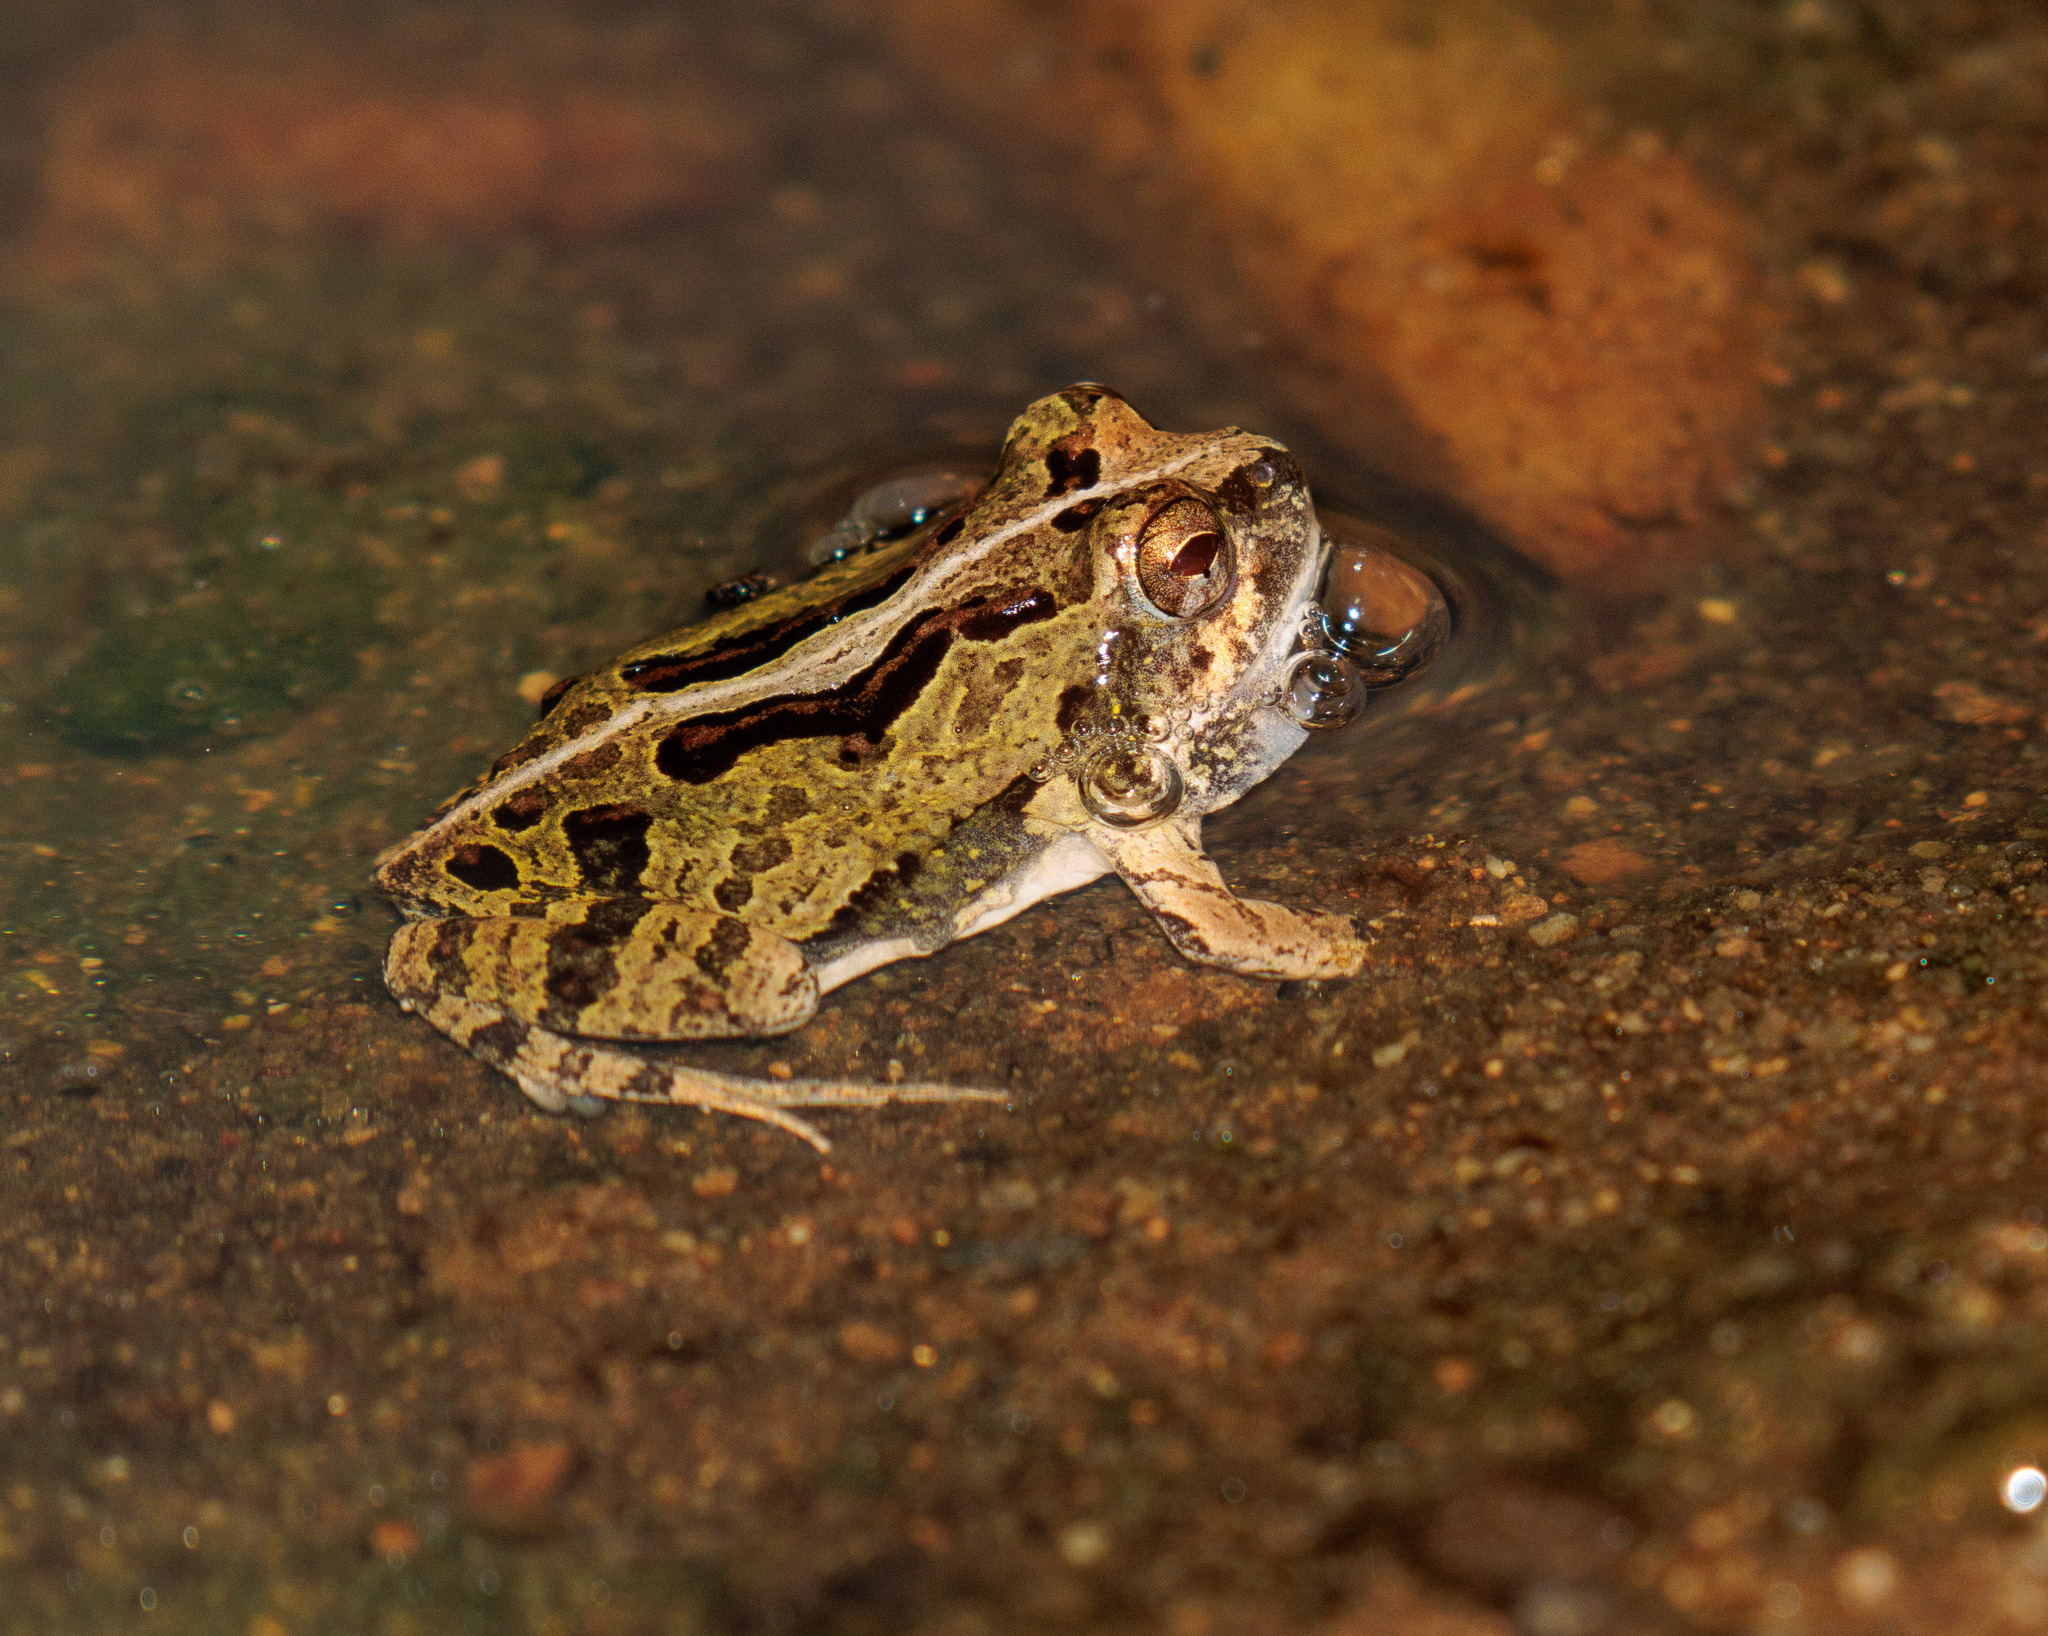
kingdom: Animalia
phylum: Chordata
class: Amphibia
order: Anura
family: Leptodactylidae
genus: Physalaemus
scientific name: Physalaemus albifrons
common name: Bahia dwarf frog
